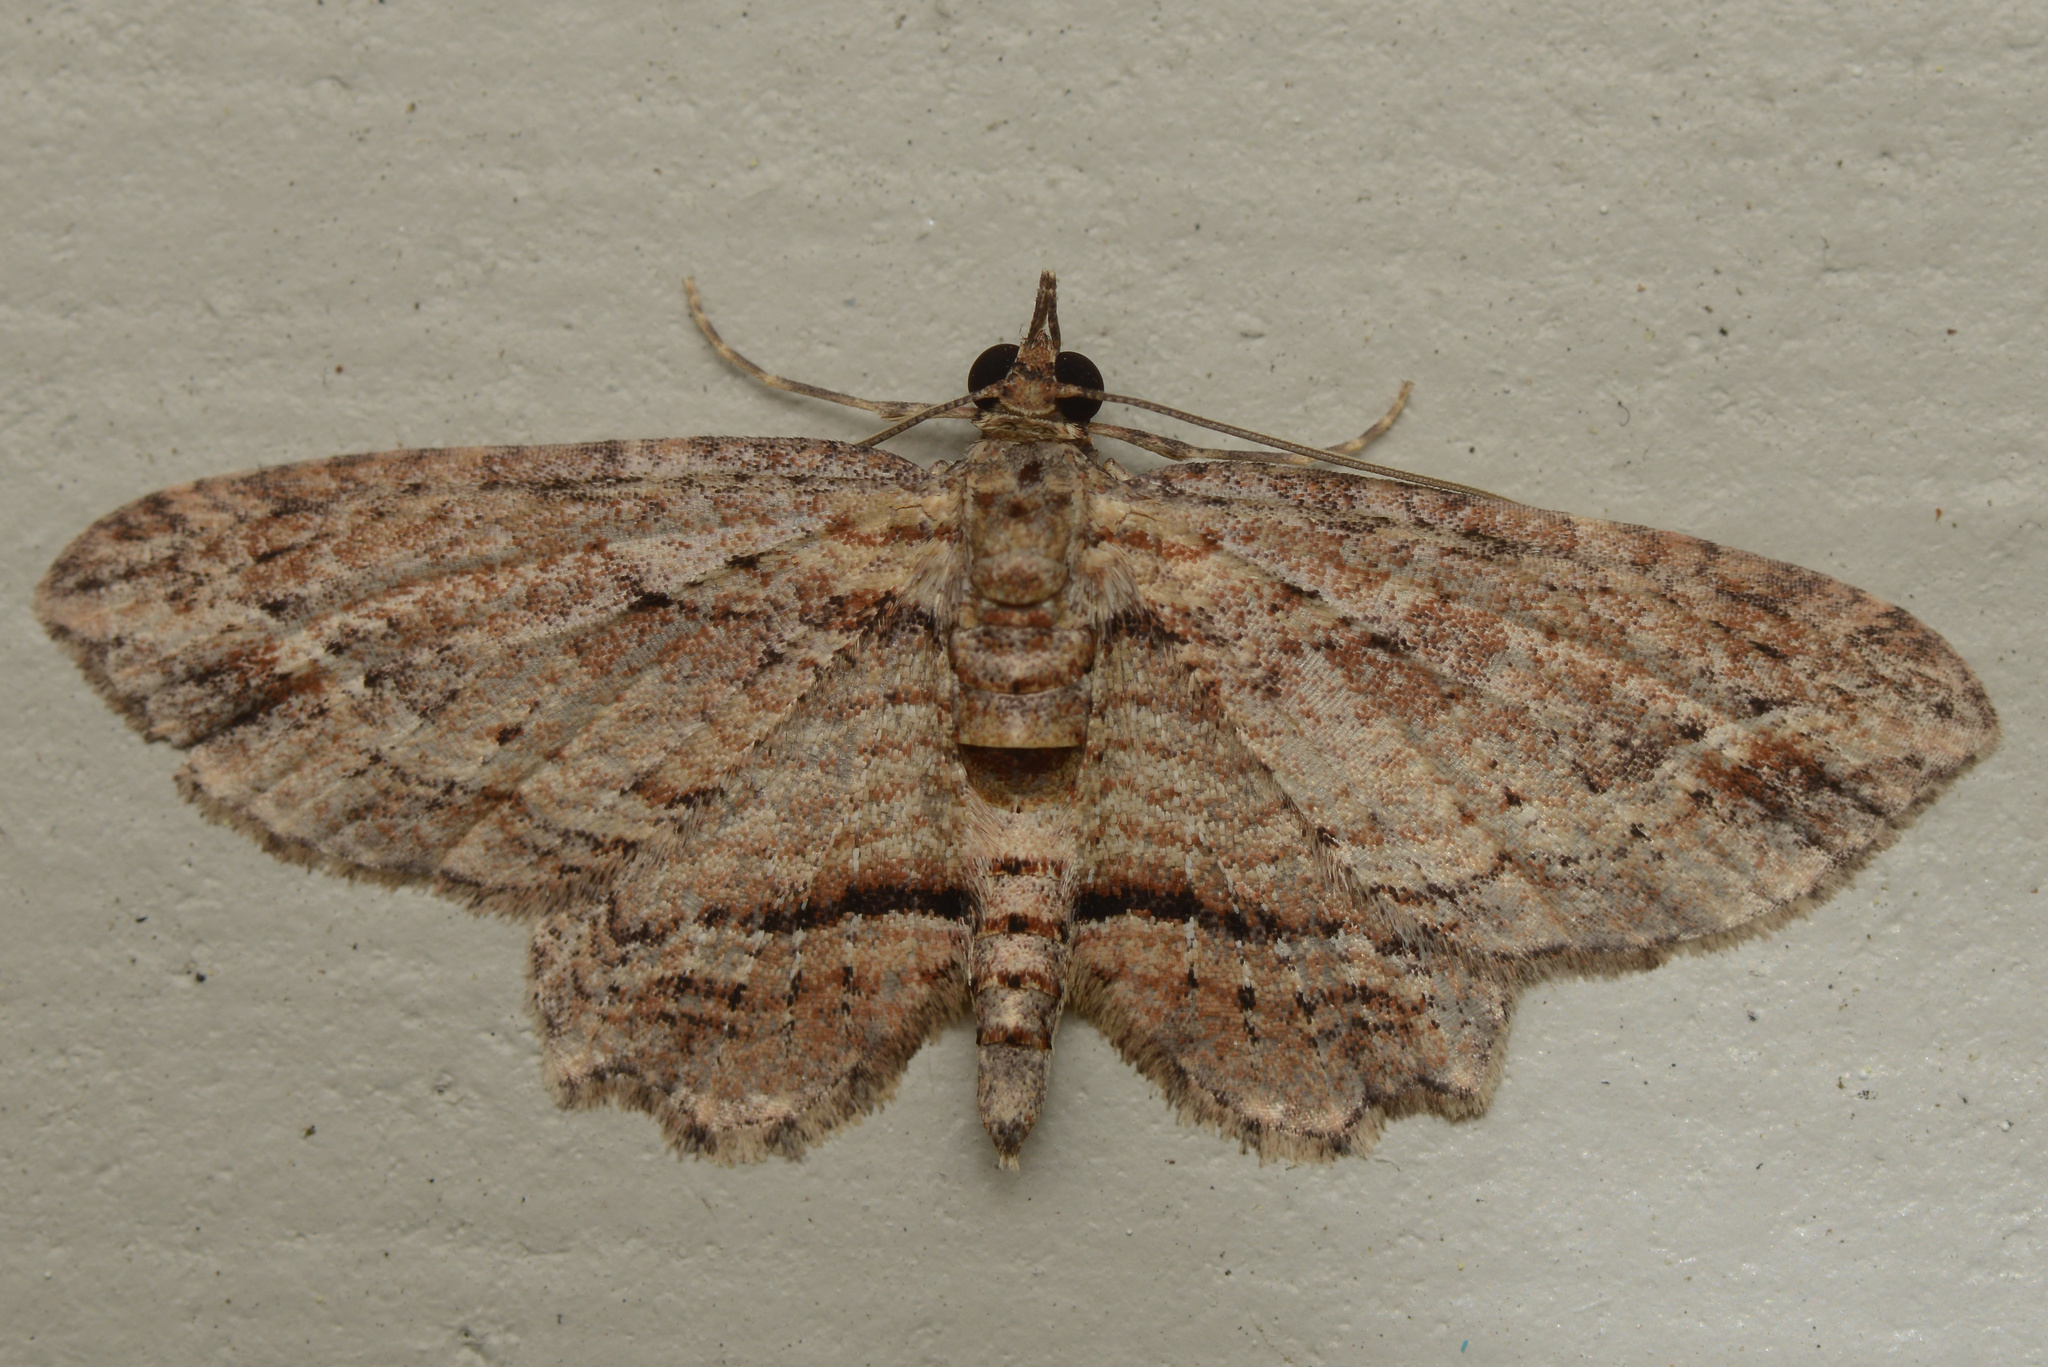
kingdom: Animalia
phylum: Arthropoda
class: Insecta
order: Lepidoptera
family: Geometridae
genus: Chloroclystis
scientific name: Chloroclystis filata
